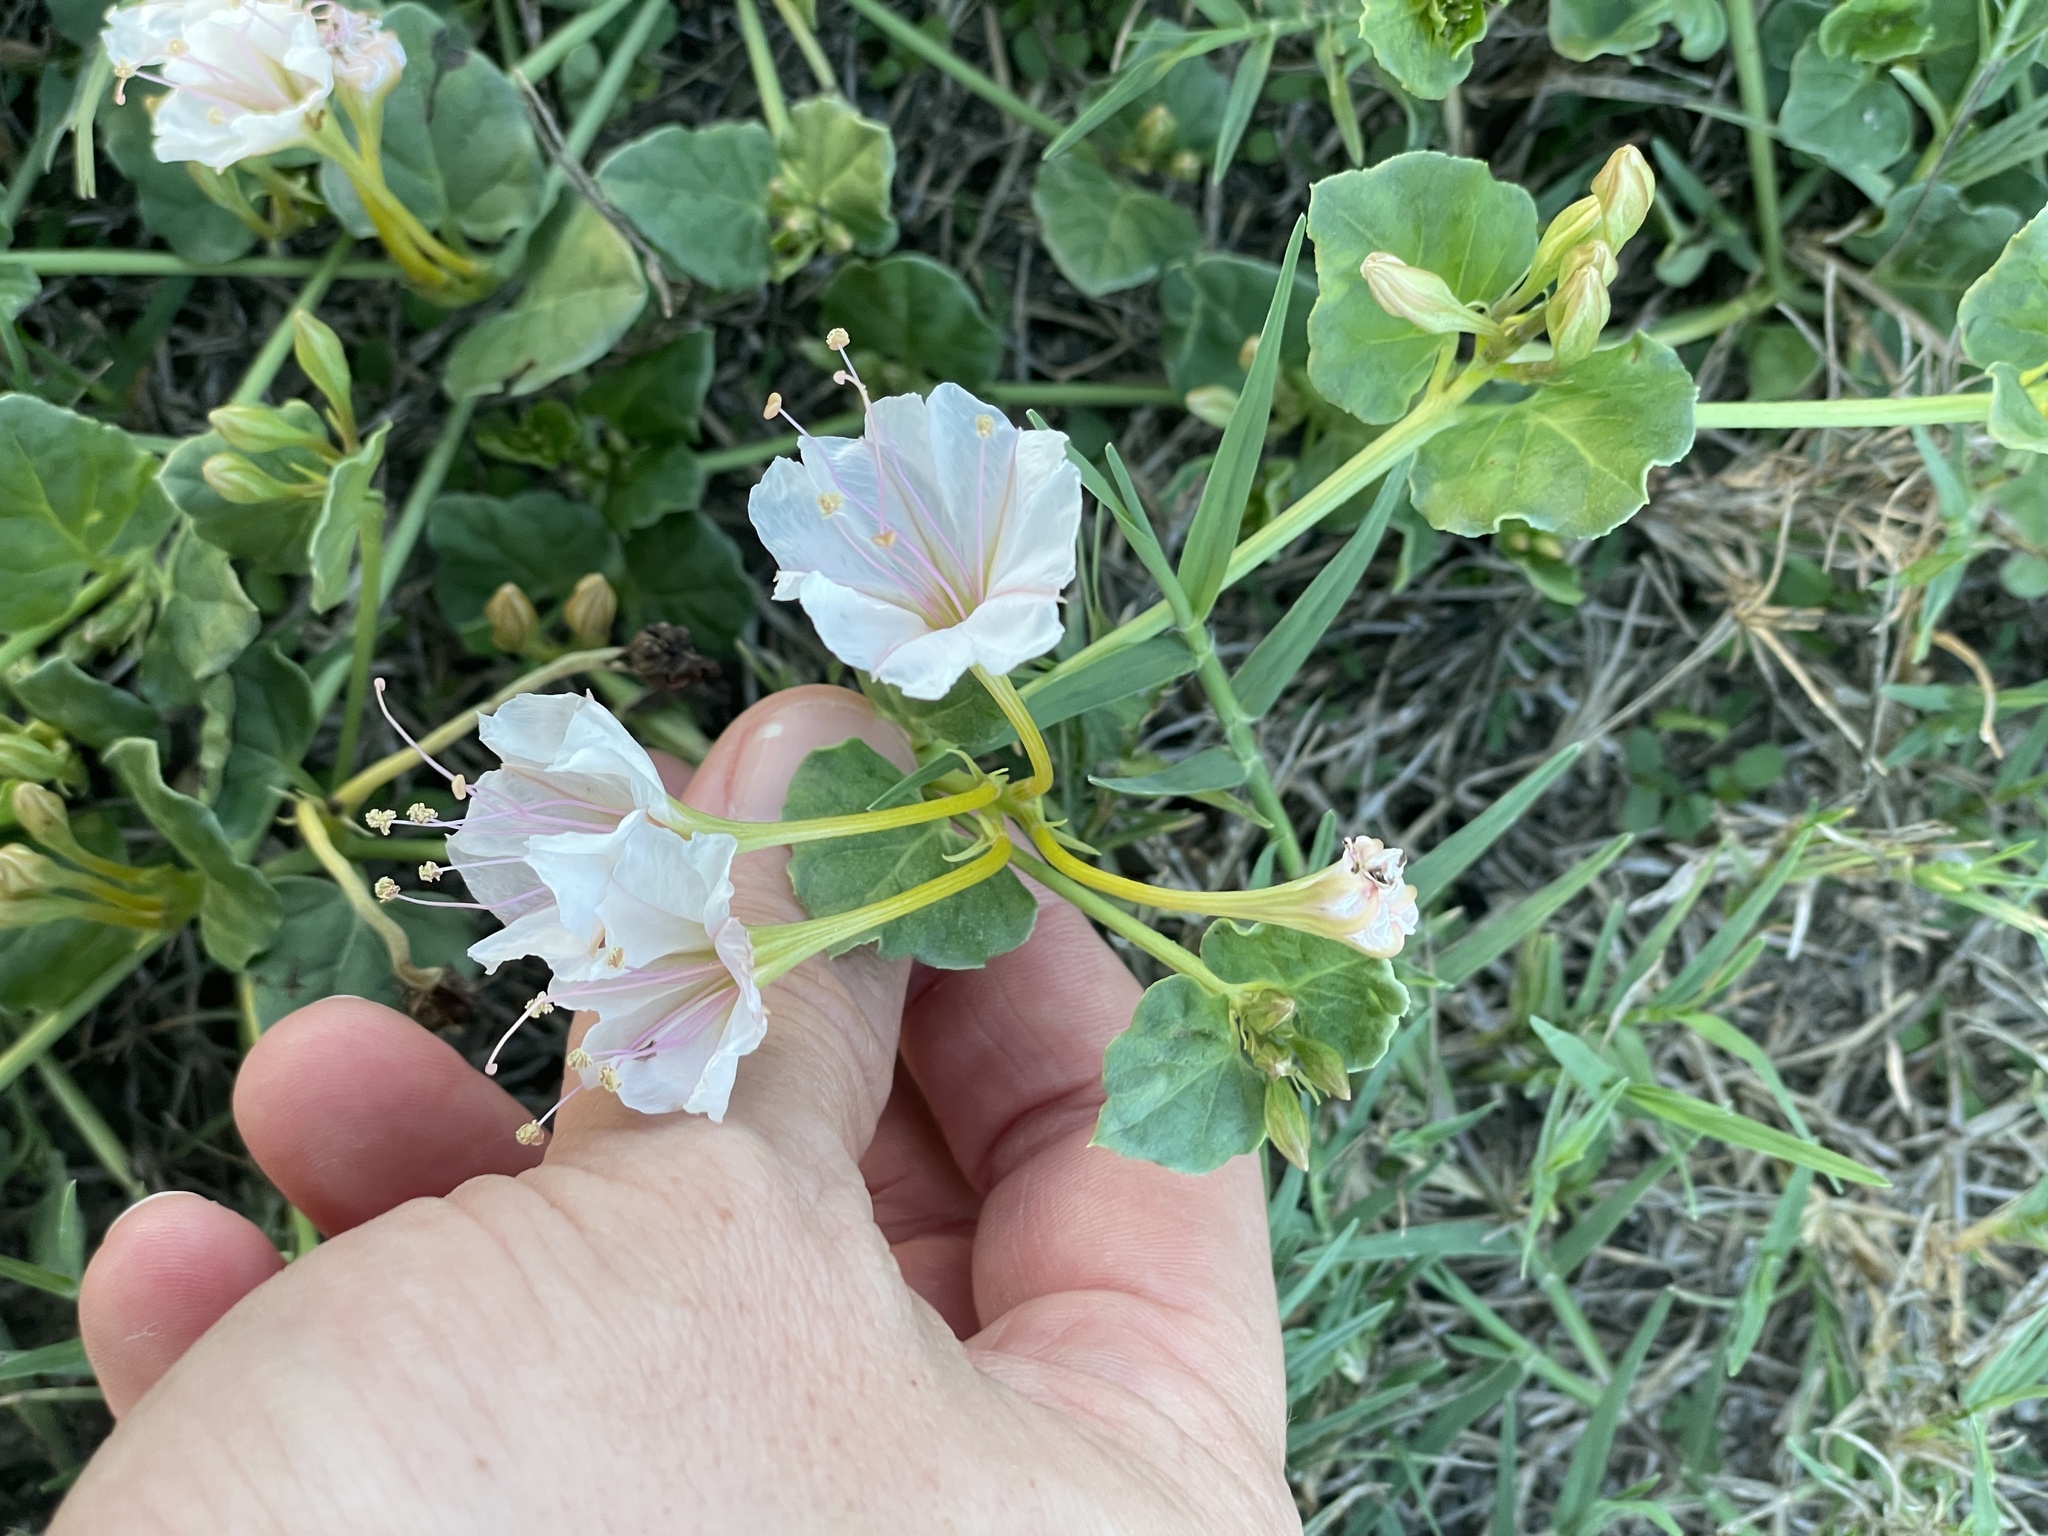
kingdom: Plantae
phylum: Tracheophyta
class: Magnoliopsida
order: Caryophyllales
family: Nyctaginaceae
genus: Acleisanthes
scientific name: Acleisanthes obtusa
